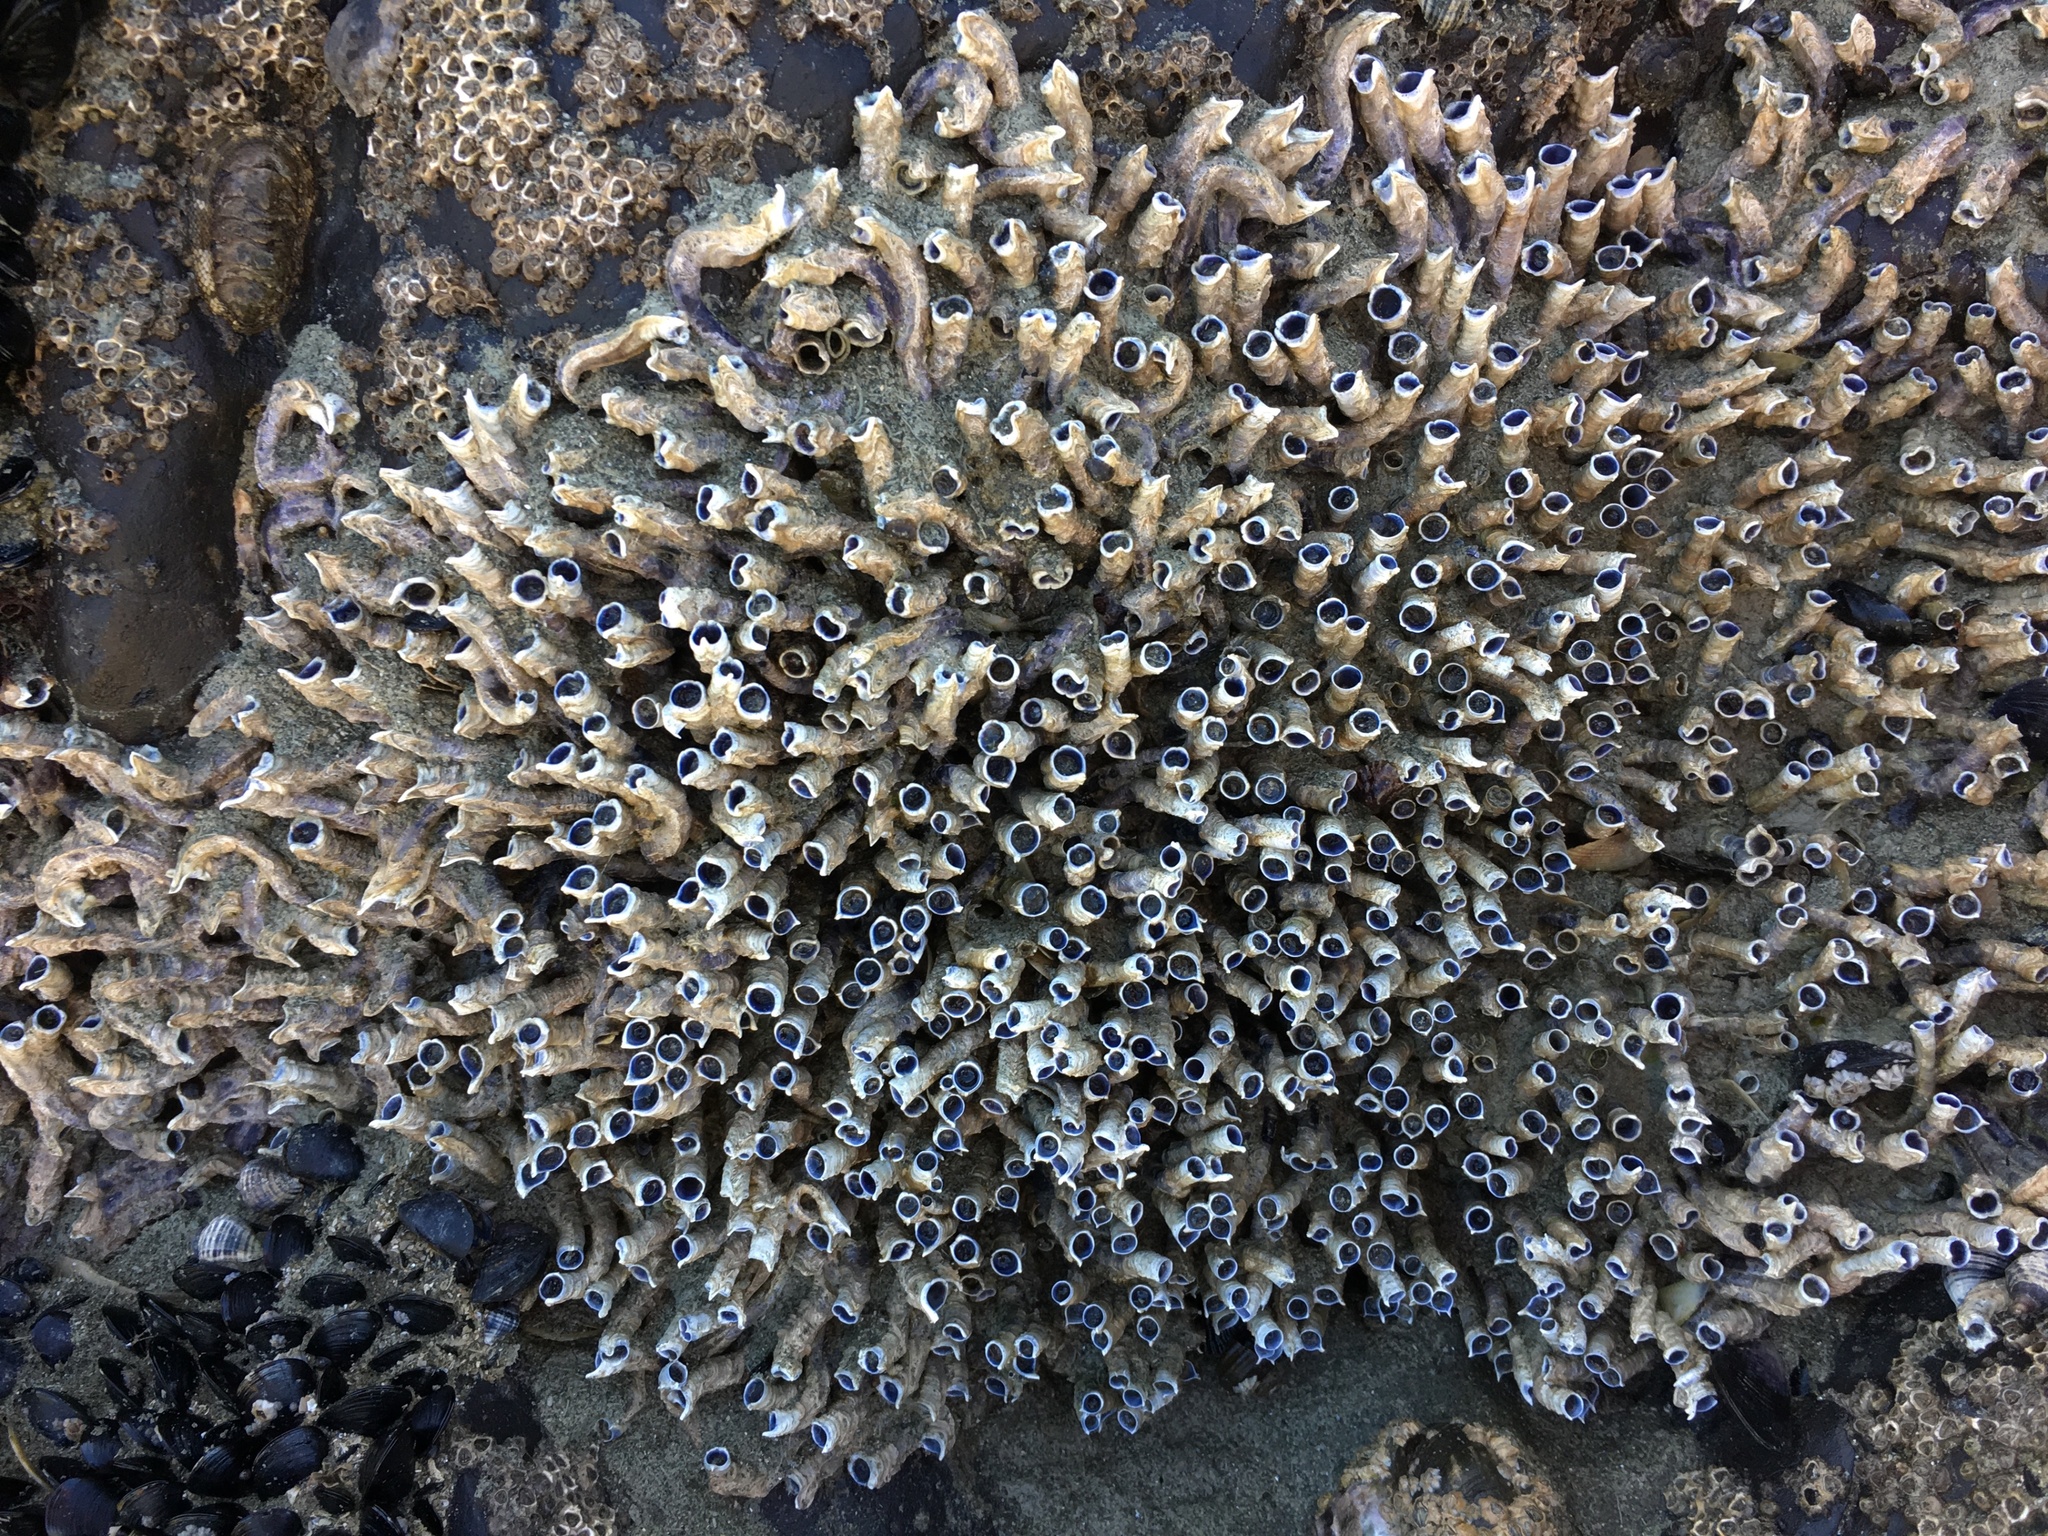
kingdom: Animalia
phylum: Annelida
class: Polychaeta
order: Sabellida
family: Serpulidae
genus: Spirobranchus
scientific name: Spirobranchus cariniferus
